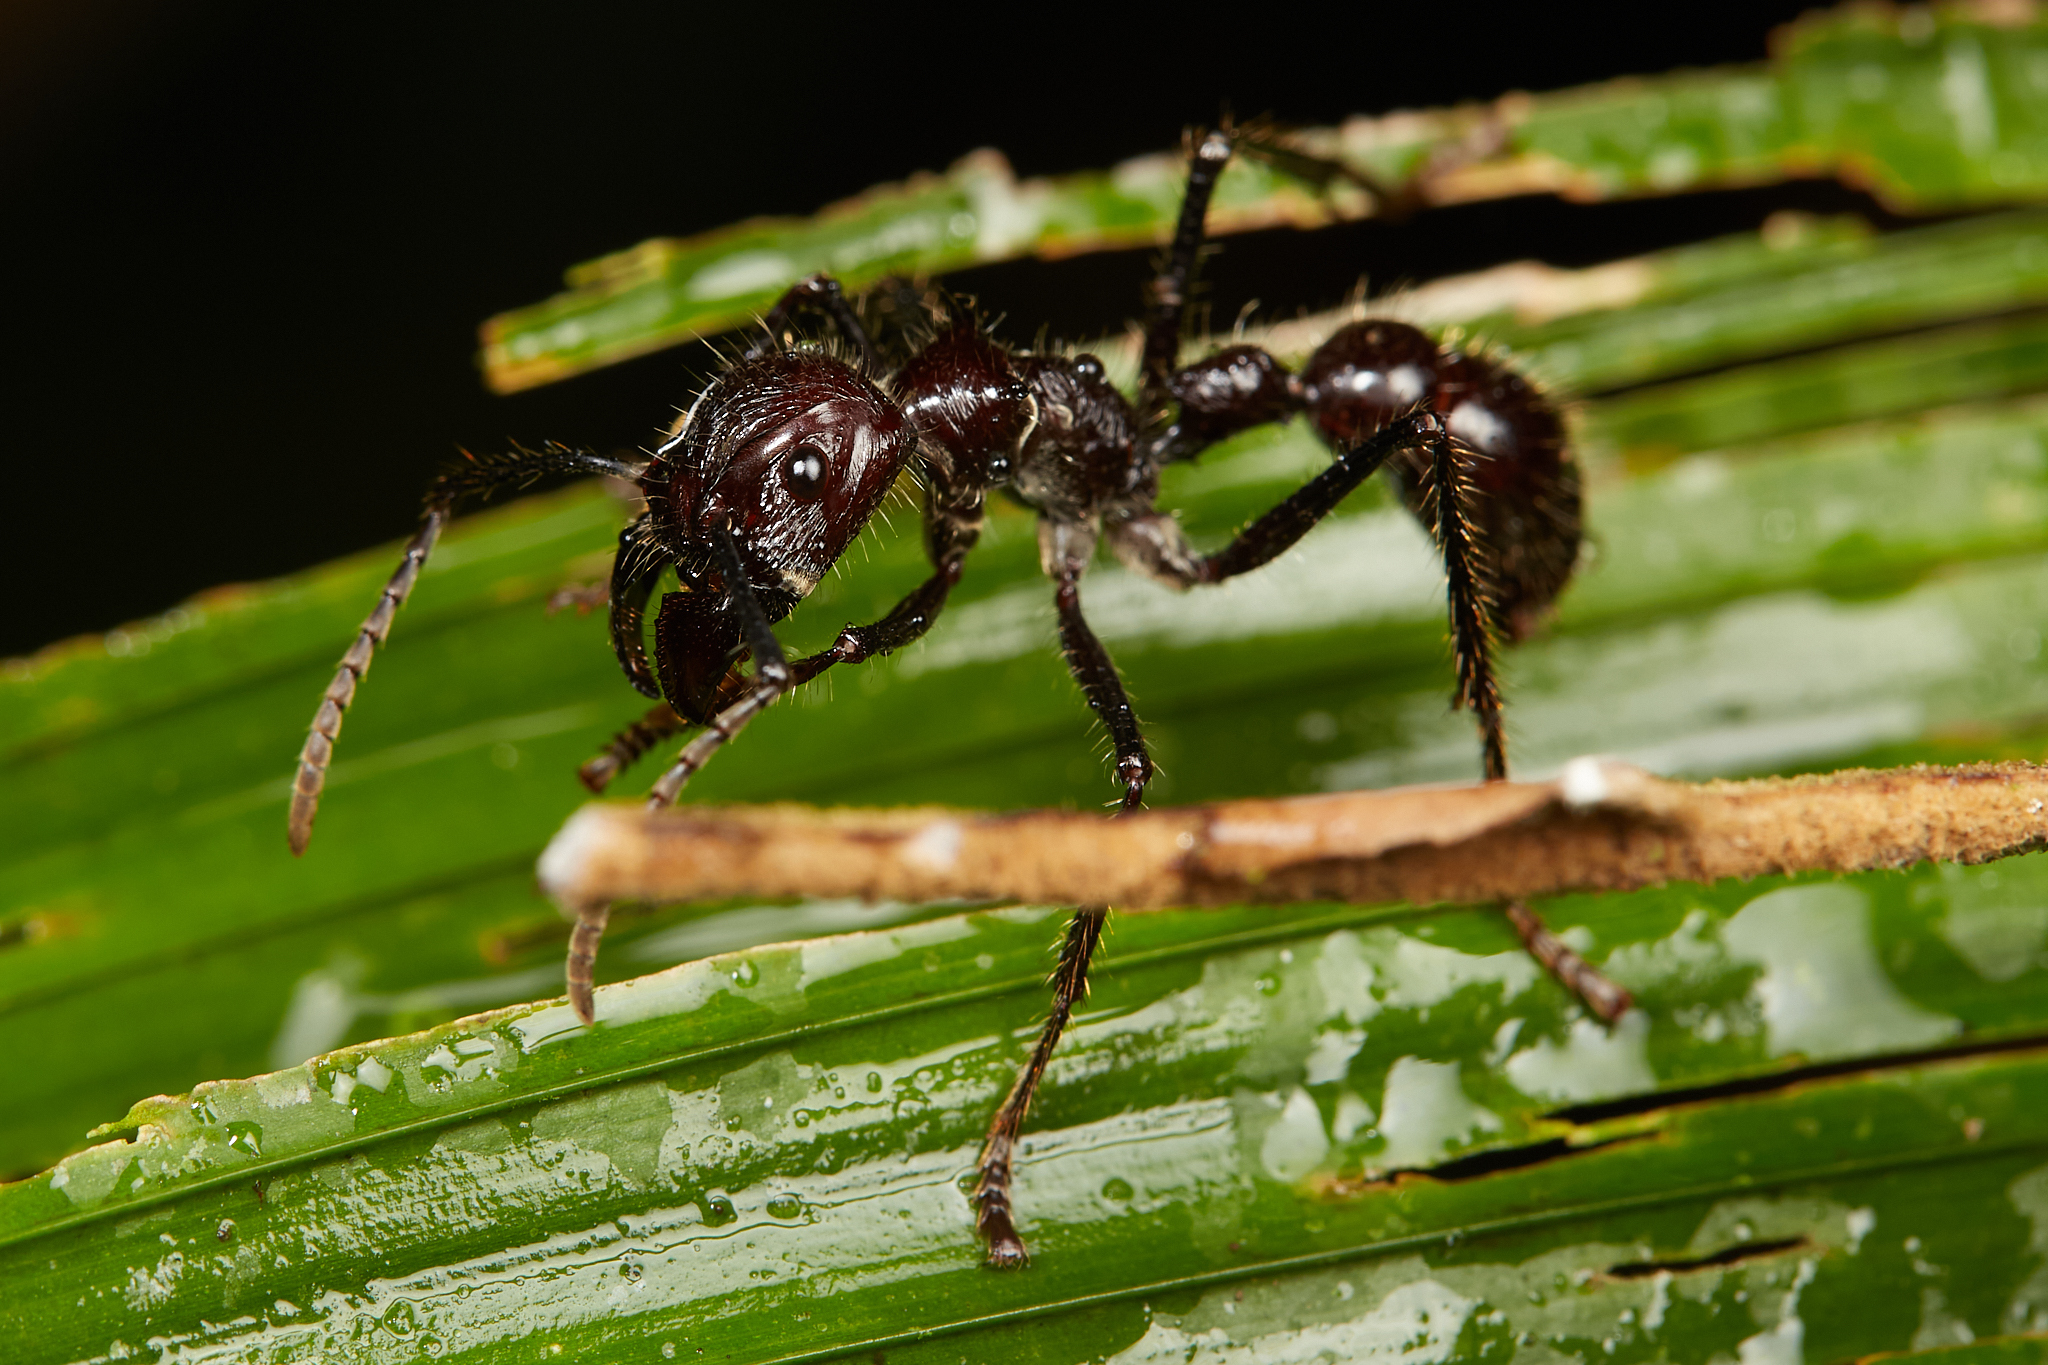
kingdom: Animalia
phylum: Arthropoda
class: Insecta
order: Hymenoptera
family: Formicidae
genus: Paraponera
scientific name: Paraponera clavata
